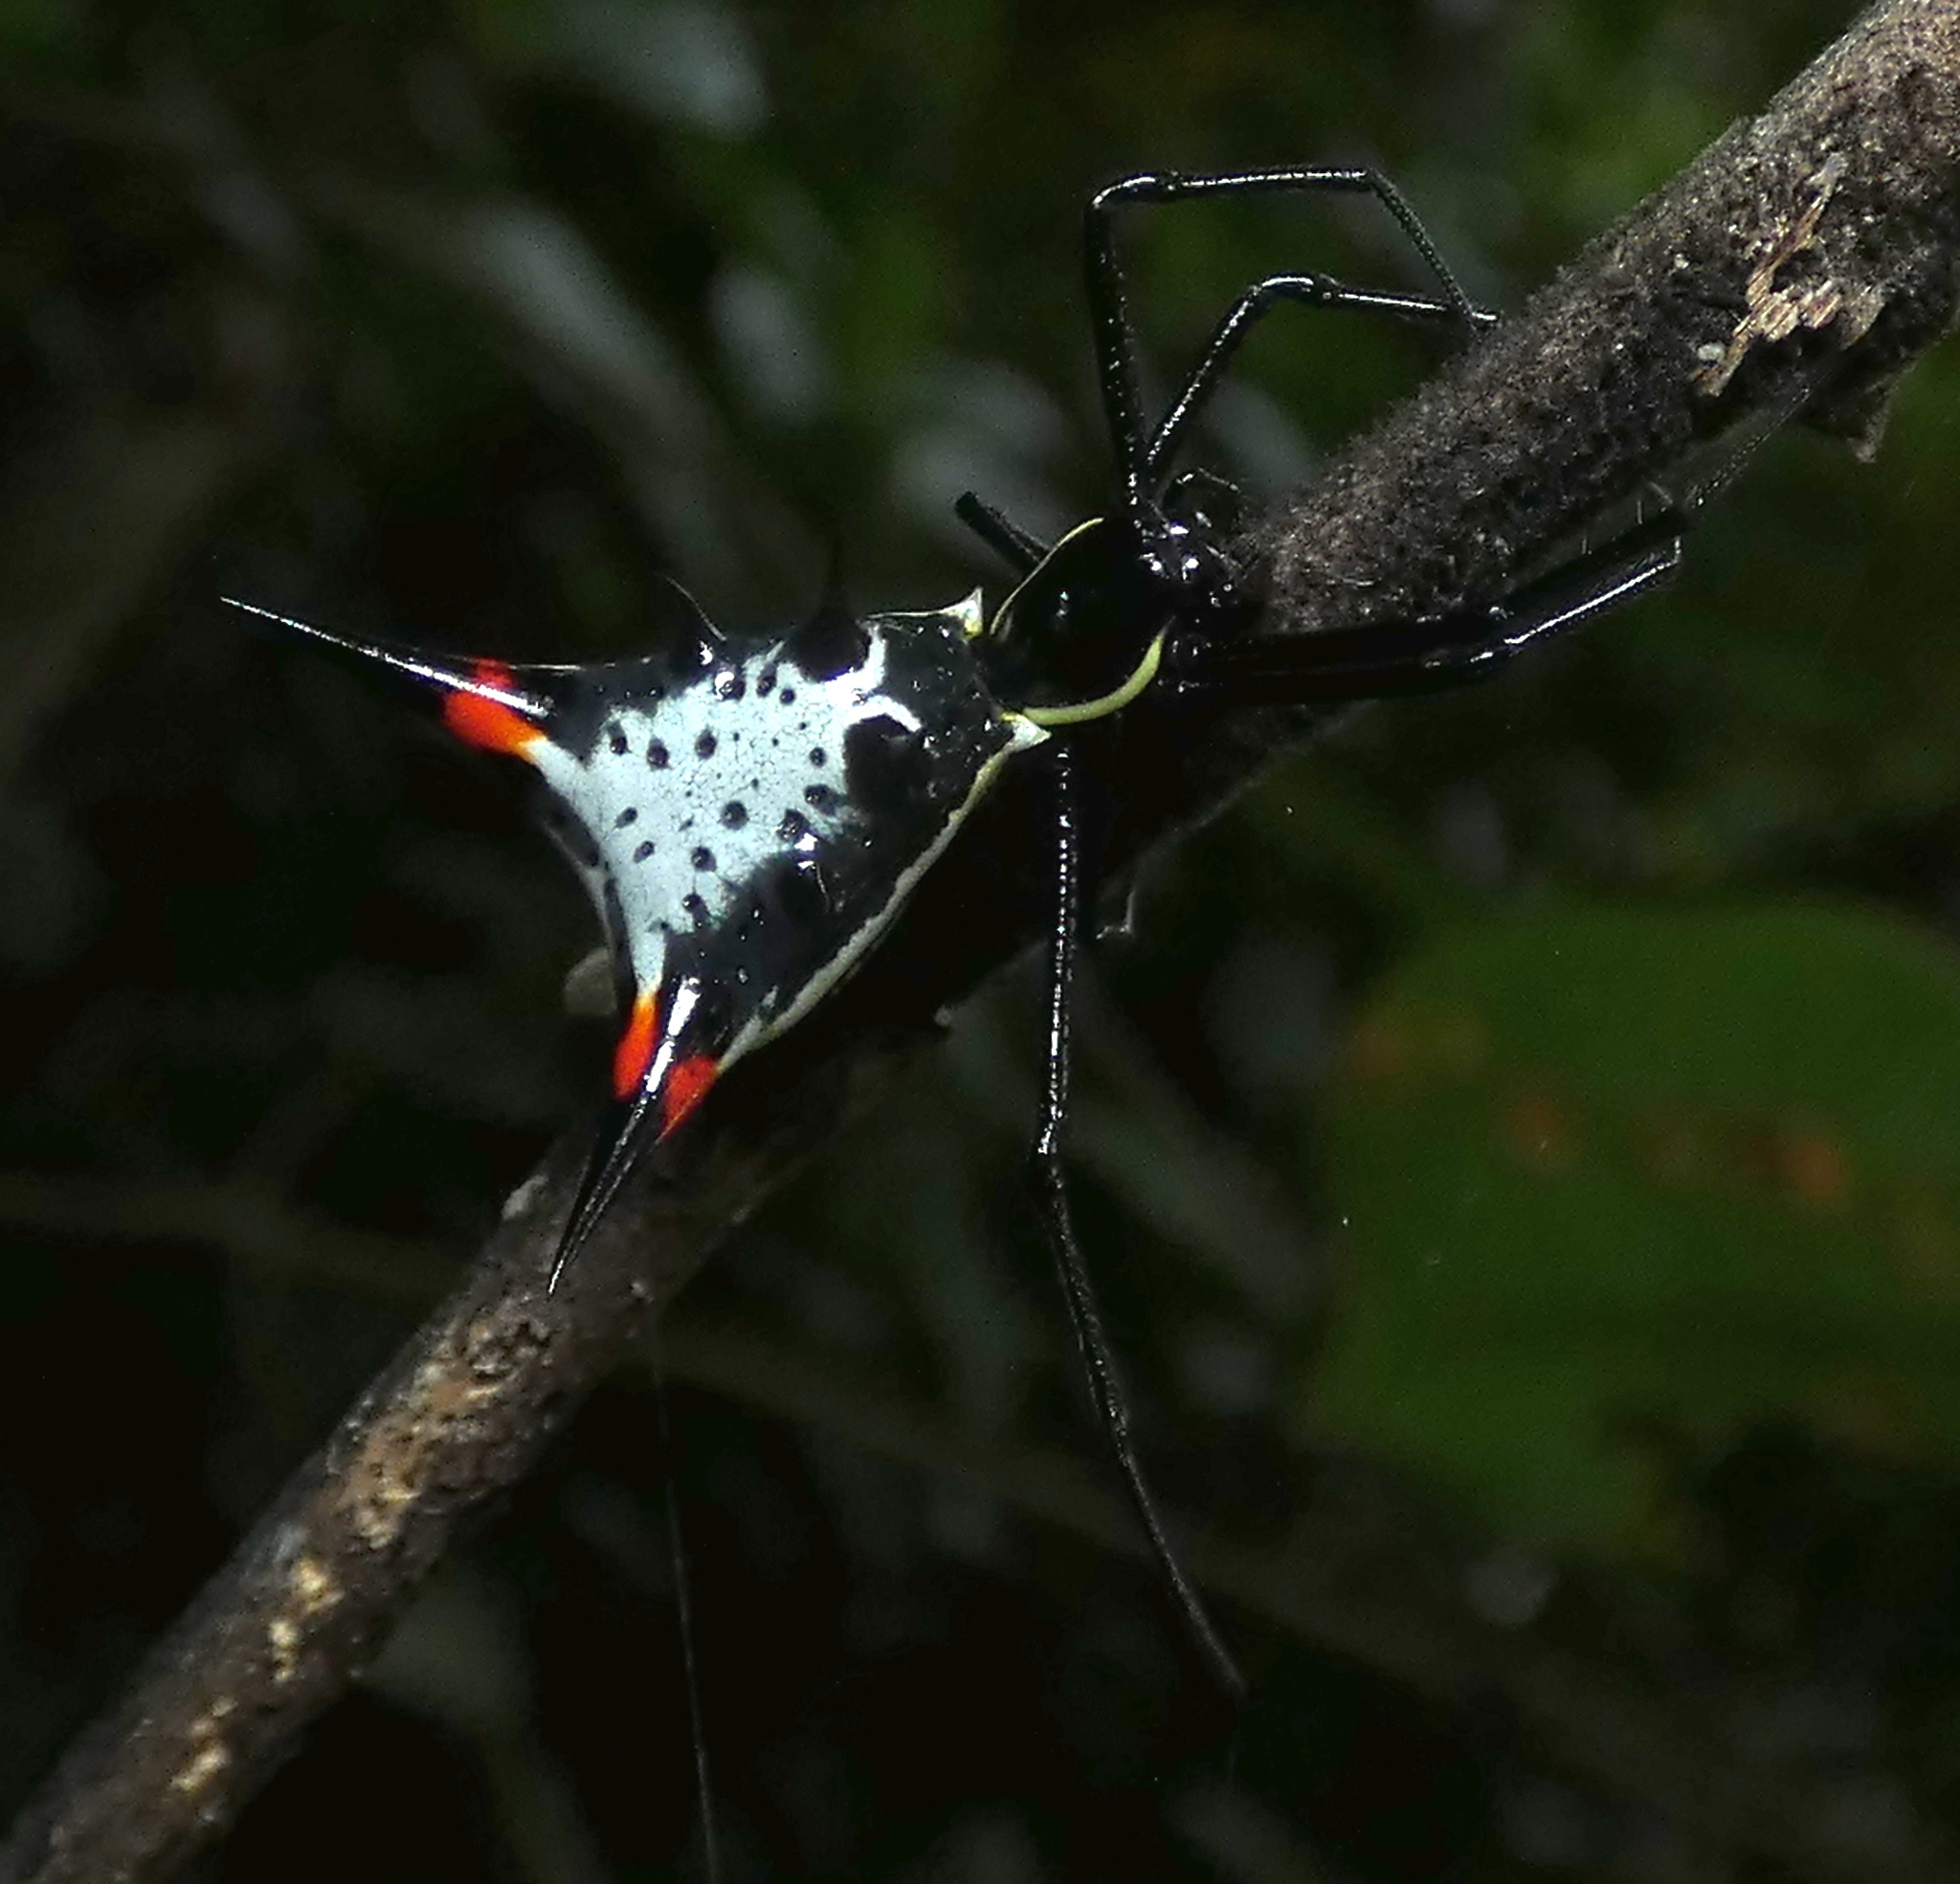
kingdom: Animalia
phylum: Arthropoda
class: Arachnida
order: Araneae
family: Araneidae
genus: Micrathena
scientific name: Micrathena schreibersi
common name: Orb weavers
